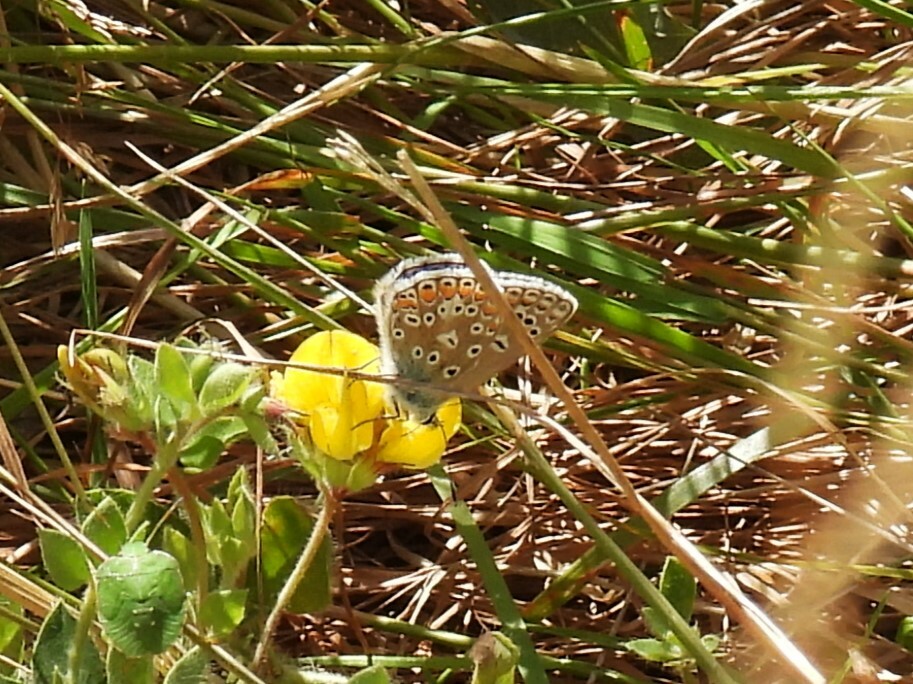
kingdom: Animalia
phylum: Arthropoda
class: Insecta
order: Lepidoptera
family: Lycaenidae
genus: Polyommatus
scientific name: Polyommatus icarus
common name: Common blue
